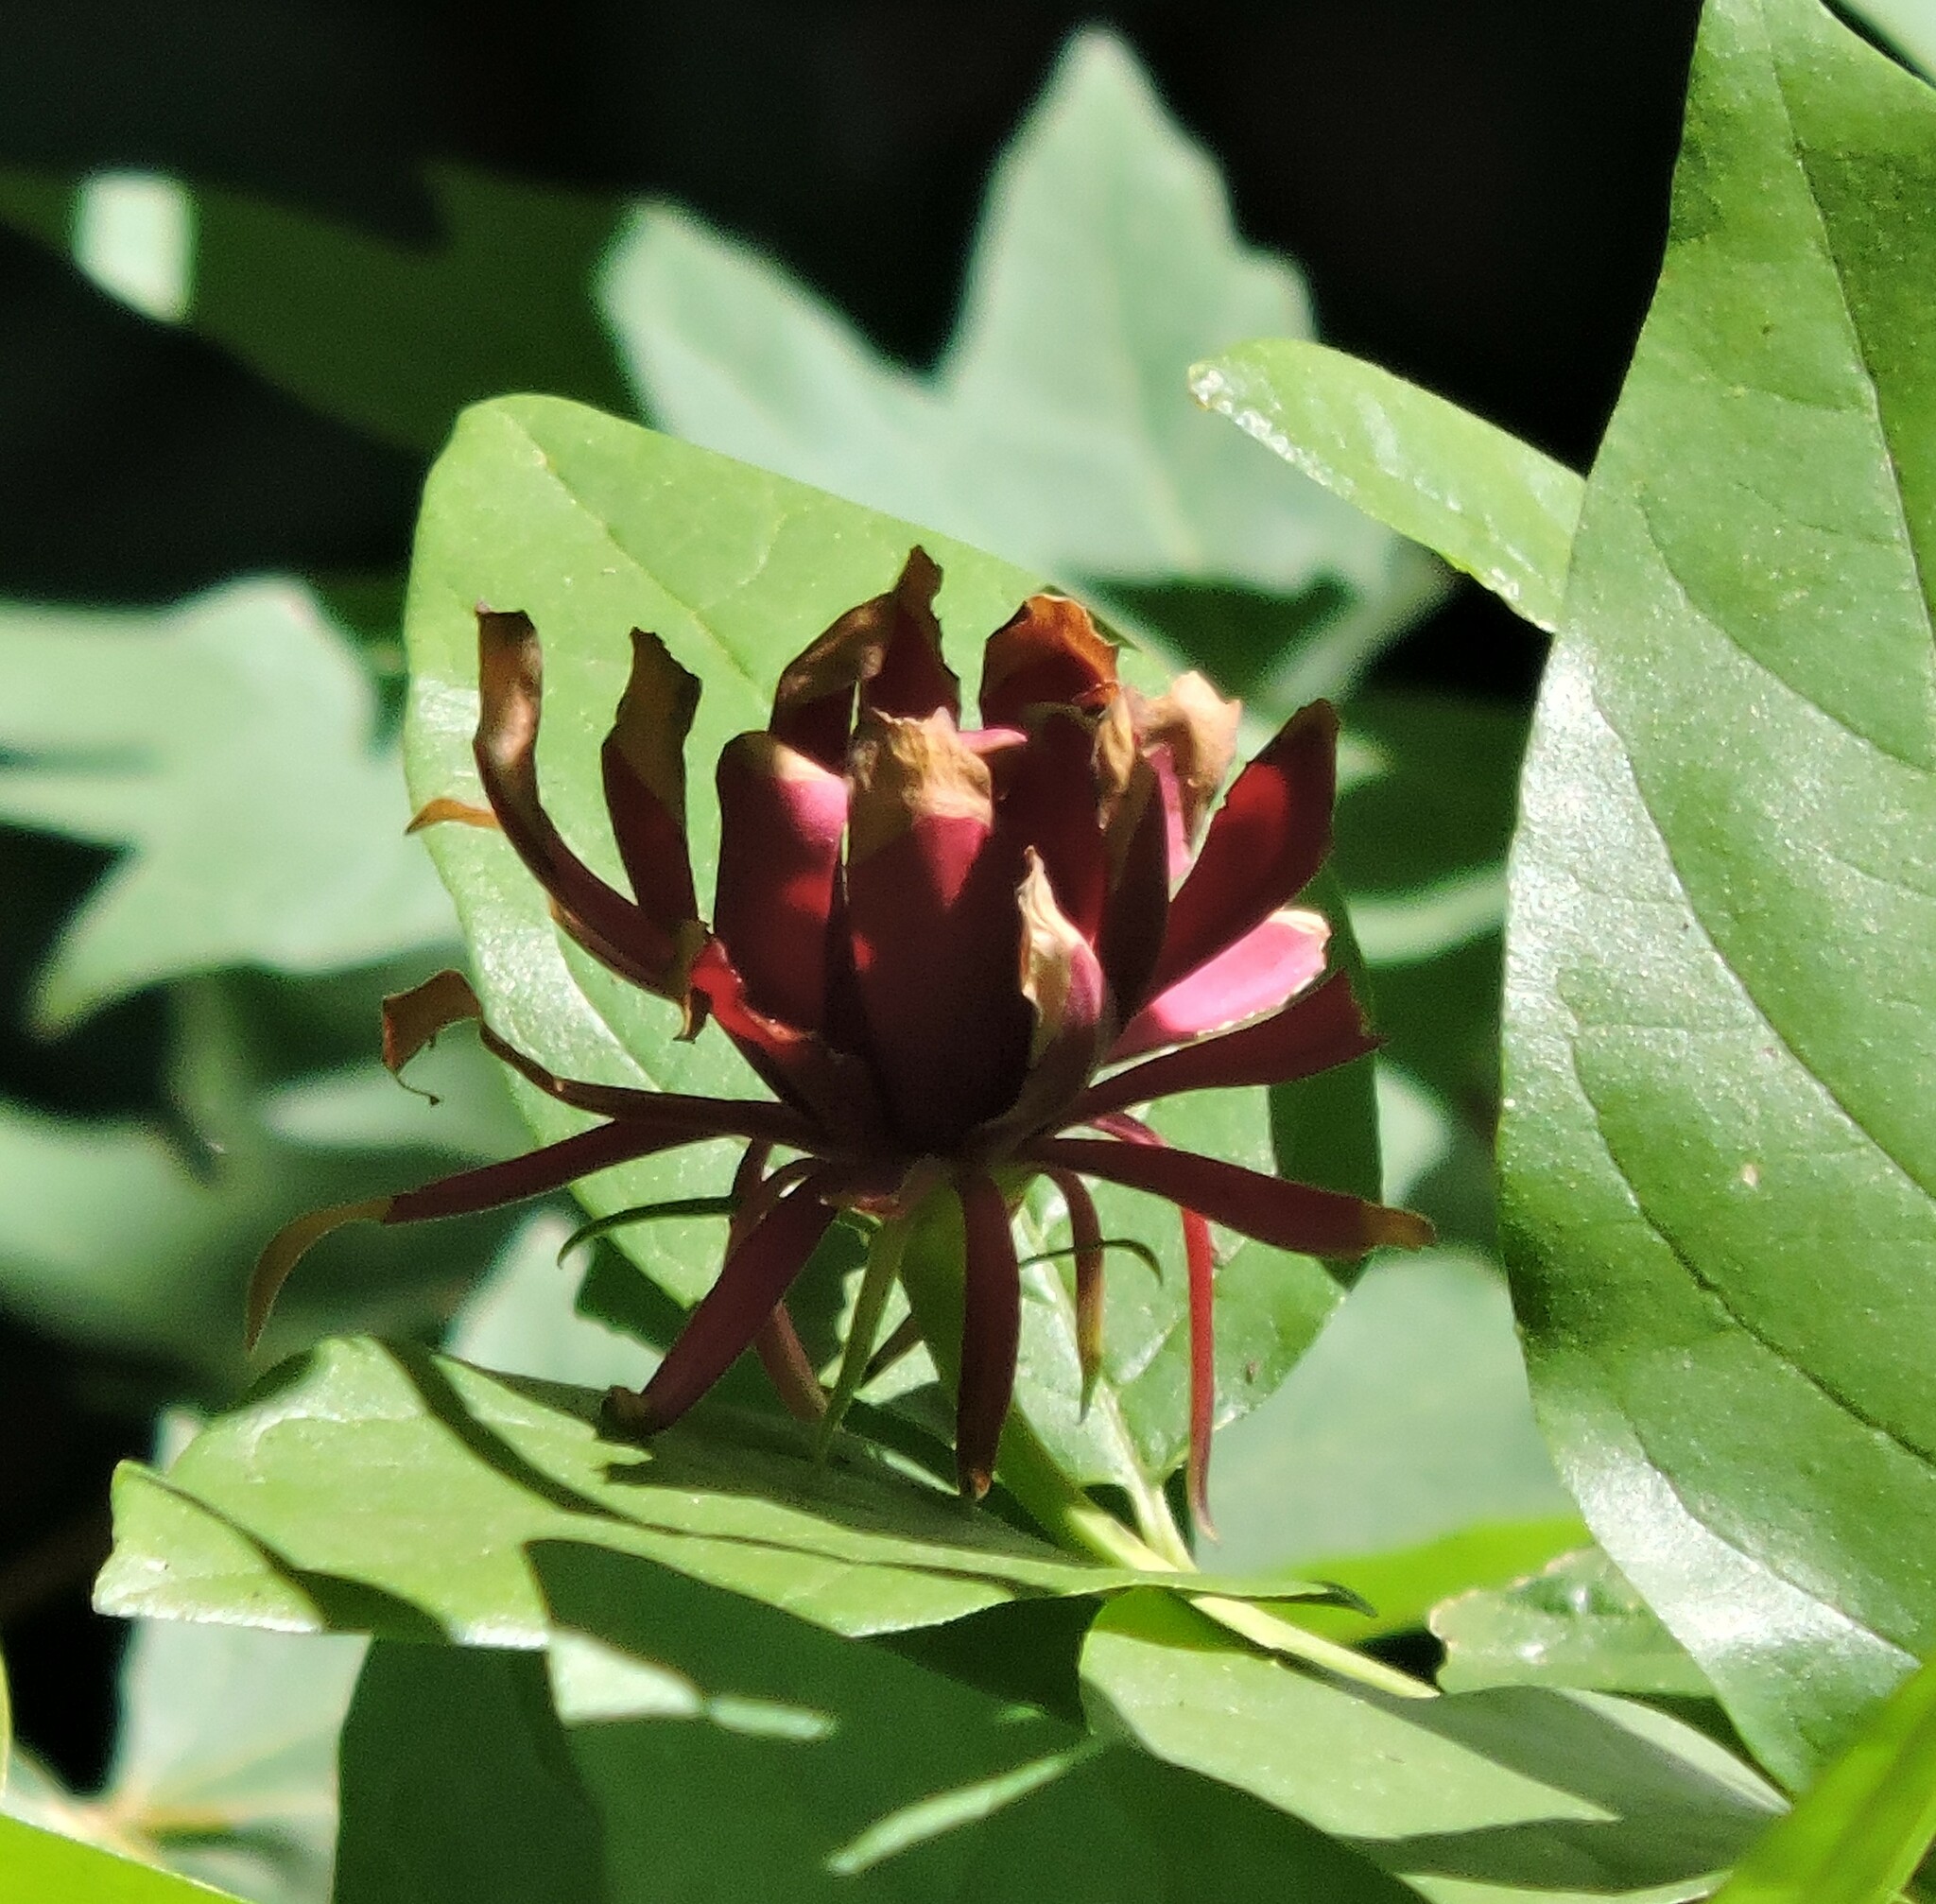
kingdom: Plantae
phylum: Tracheophyta
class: Magnoliopsida
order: Laurales
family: Calycanthaceae
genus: Calycanthus
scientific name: Calycanthus occidentalis
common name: California spicebush
